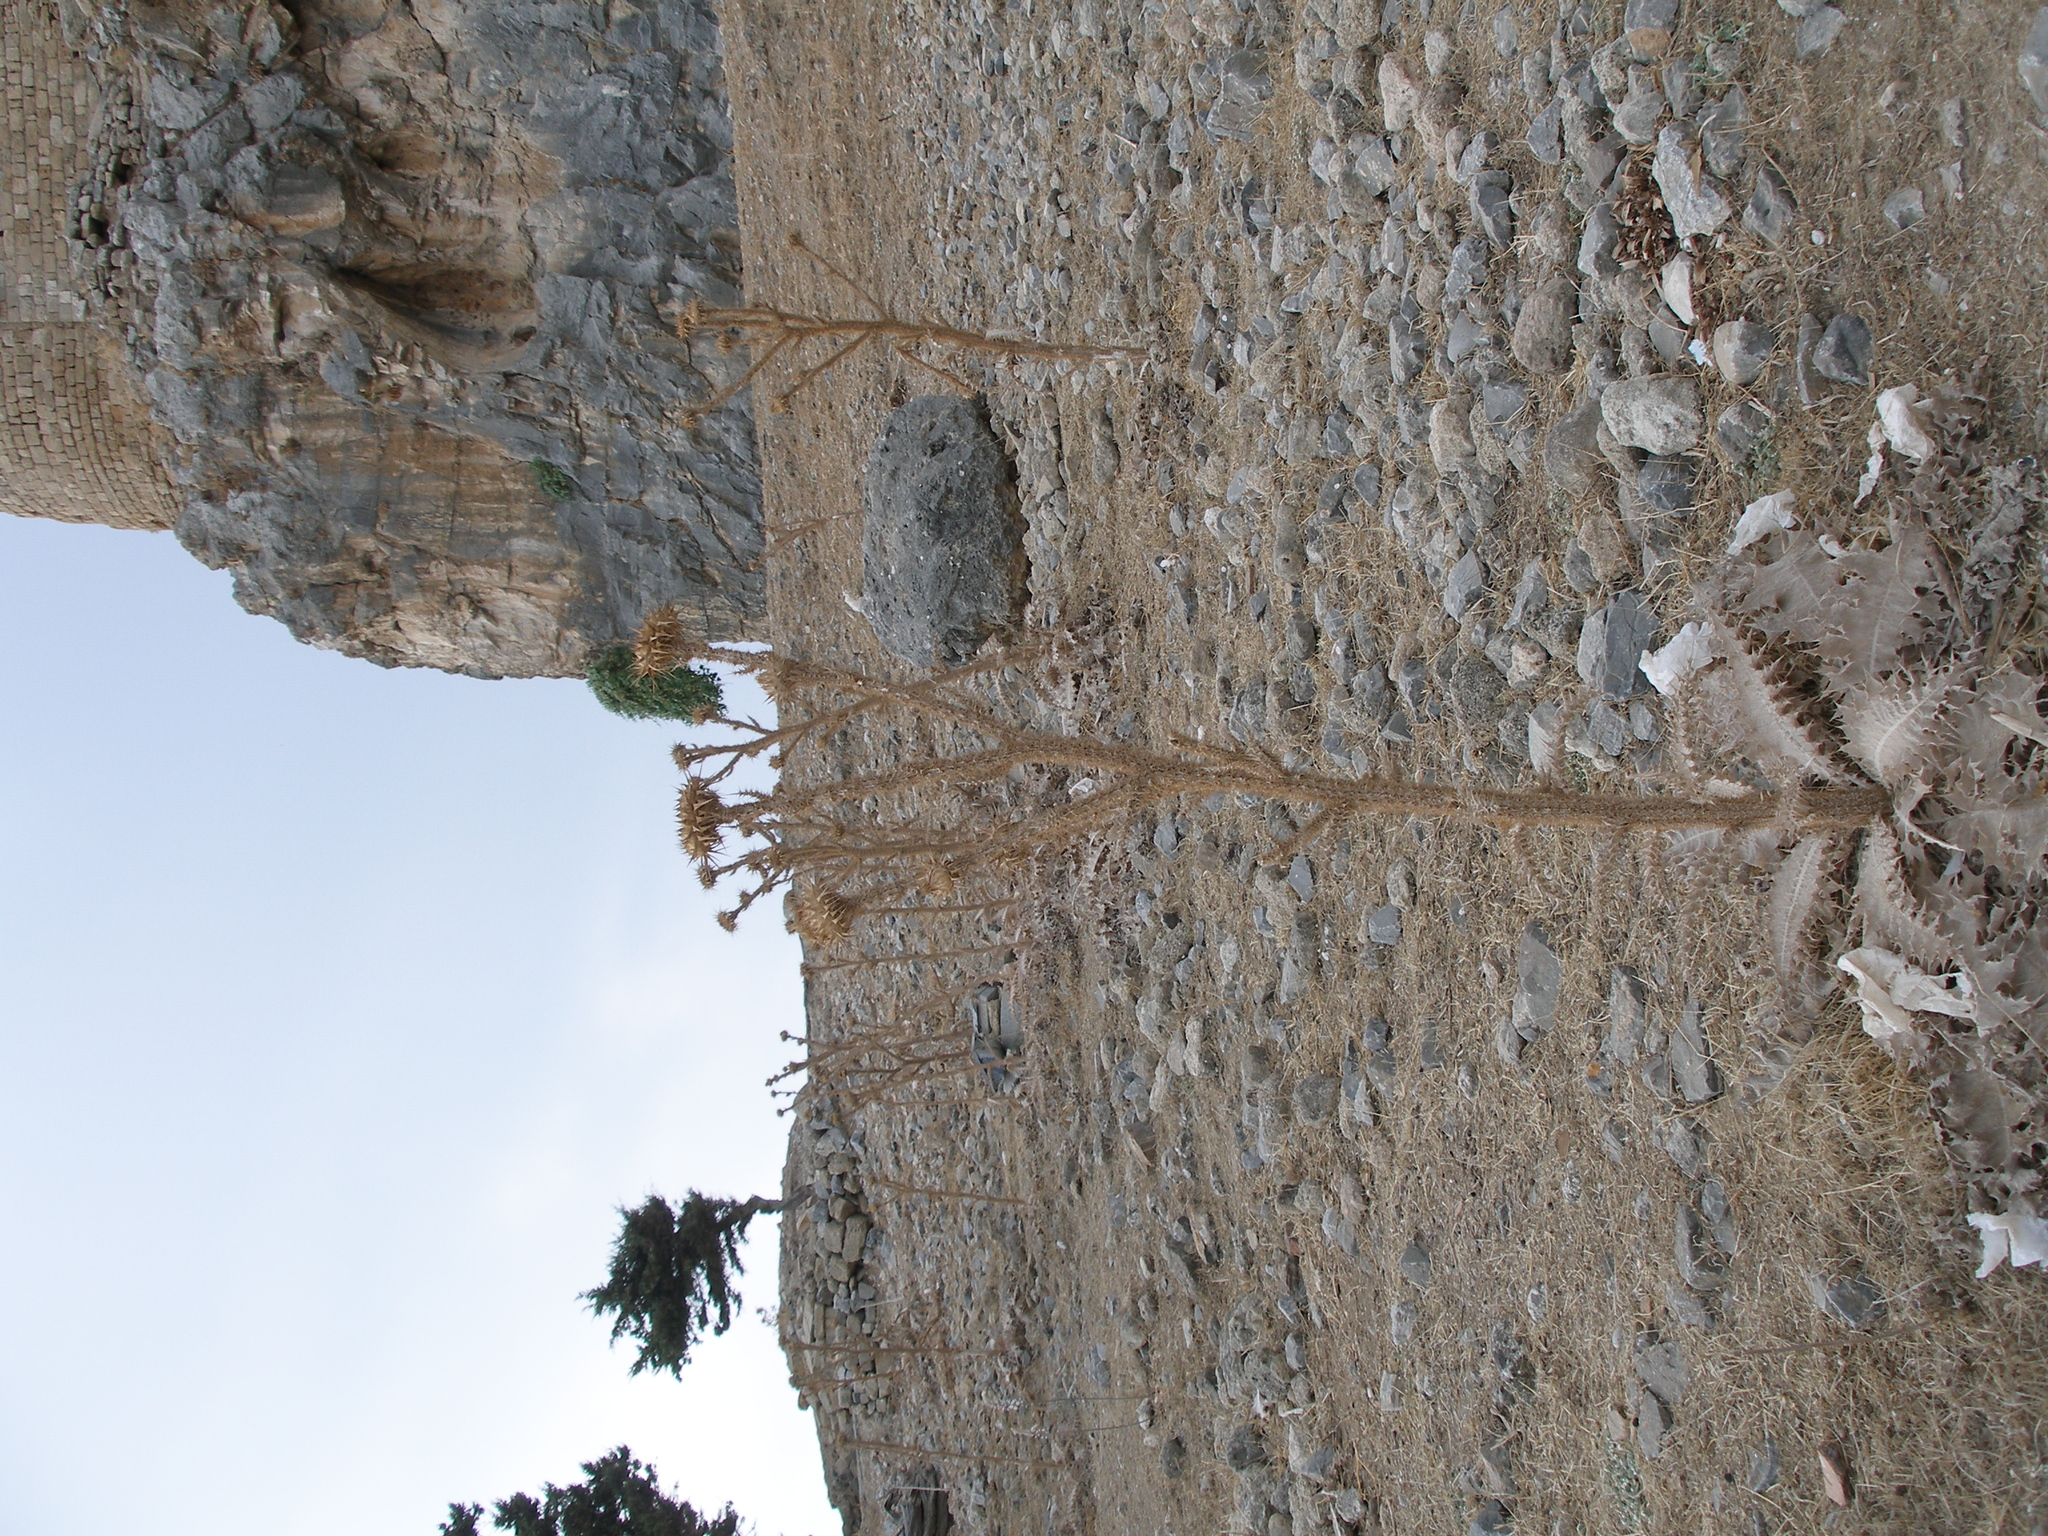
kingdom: Plantae
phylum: Tracheophyta
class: Magnoliopsida
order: Asterales
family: Asteraceae
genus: Onopordum
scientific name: Onopordum bracteatum
